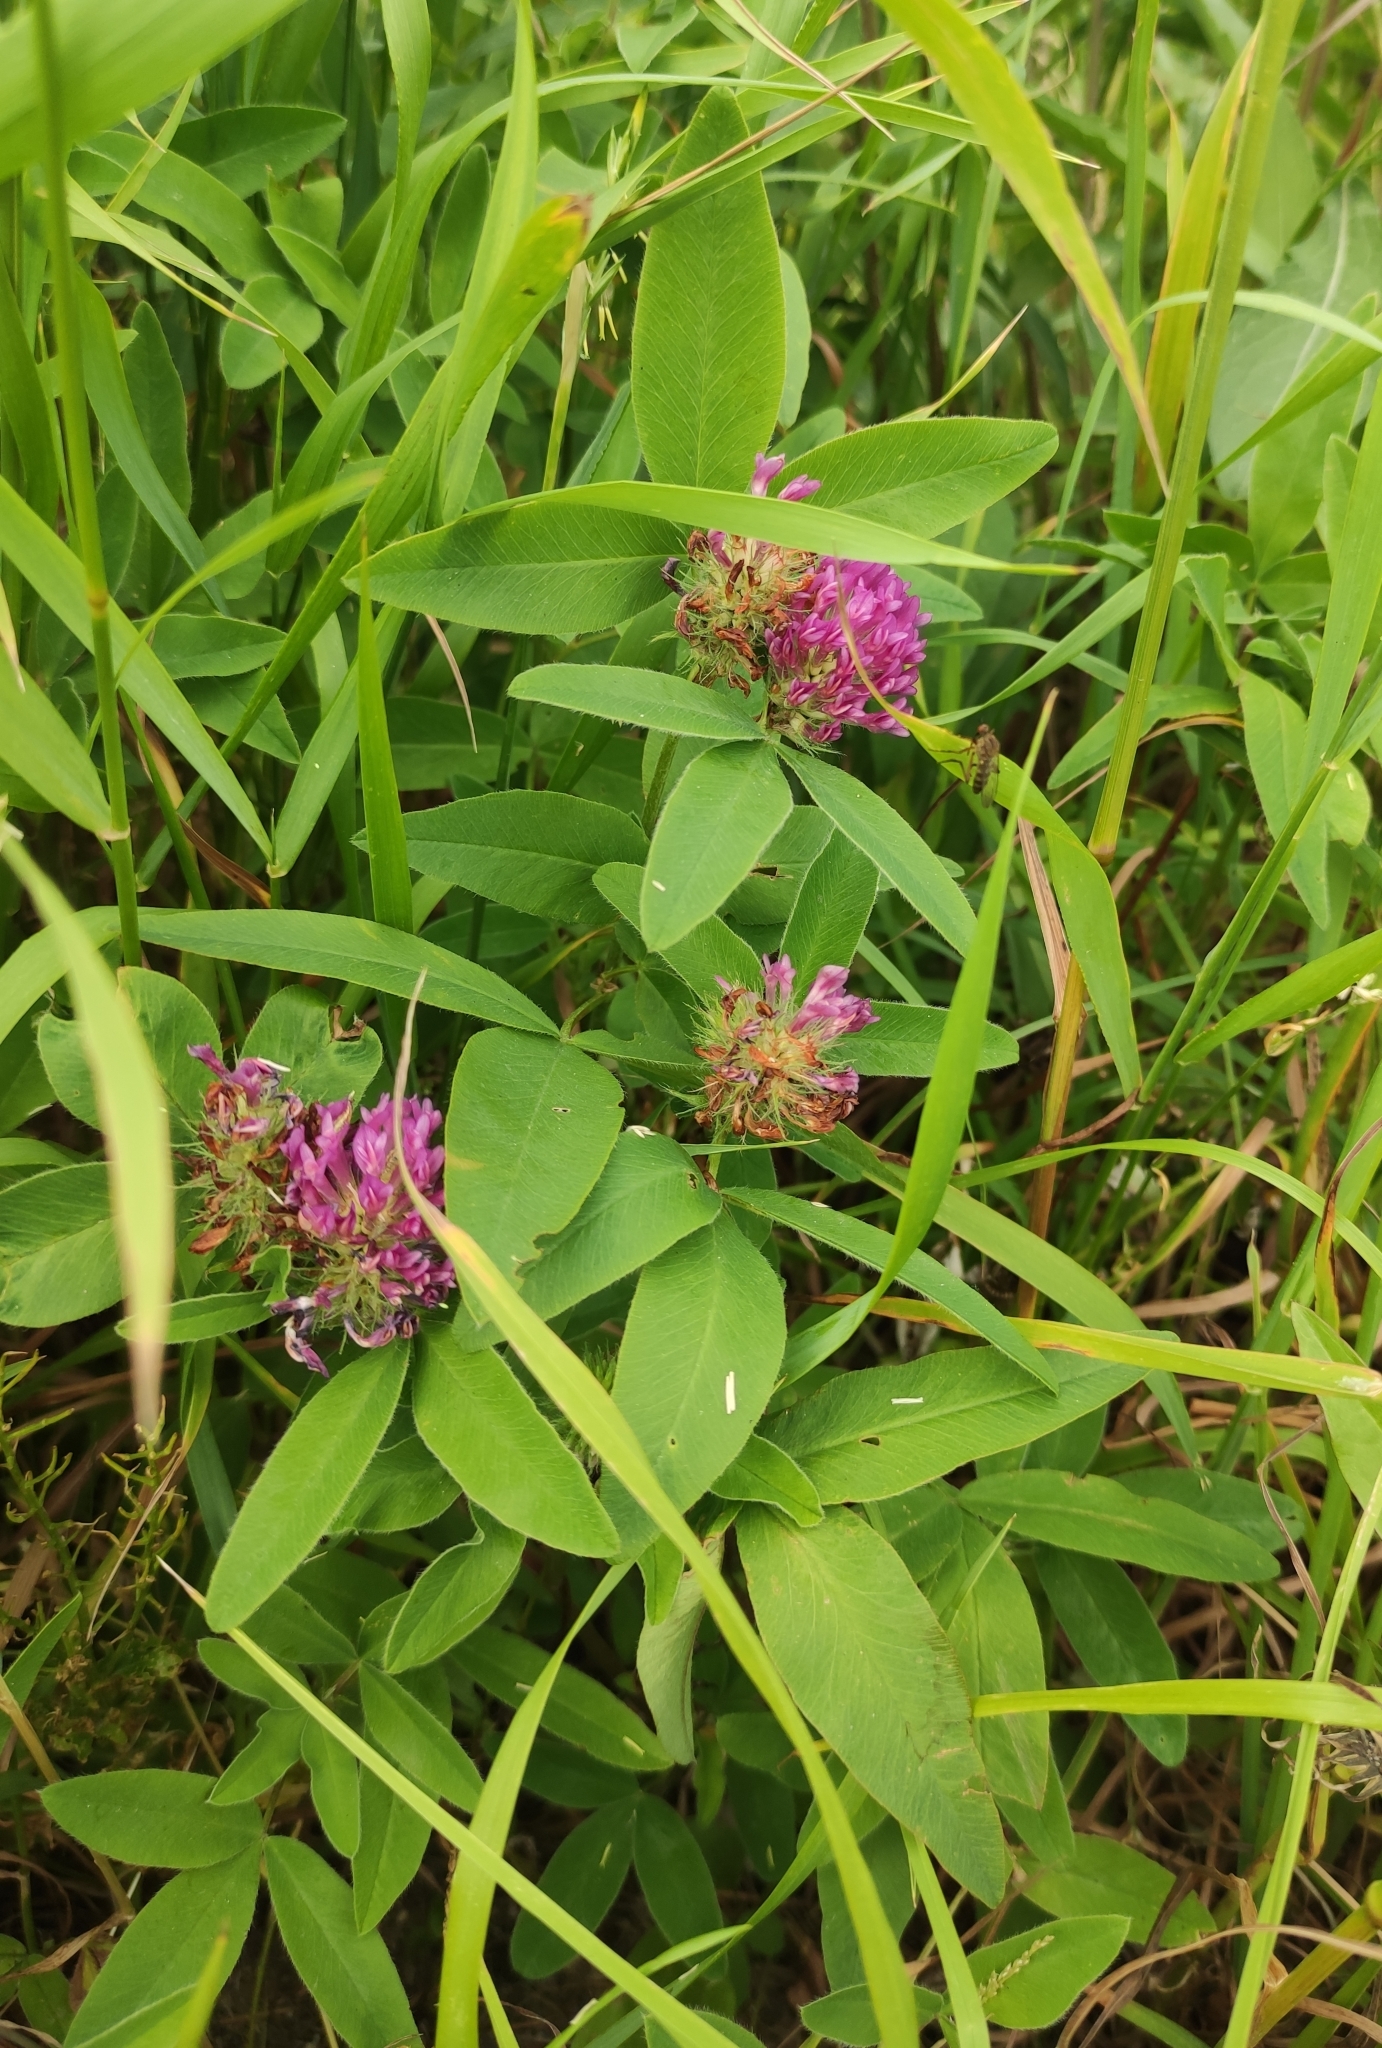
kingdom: Plantae
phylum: Tracheophyta
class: Magnoliopsida
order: Fabales
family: Fabaceae
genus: Trifolium
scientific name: Trifolium medium
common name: Zigzag clover
